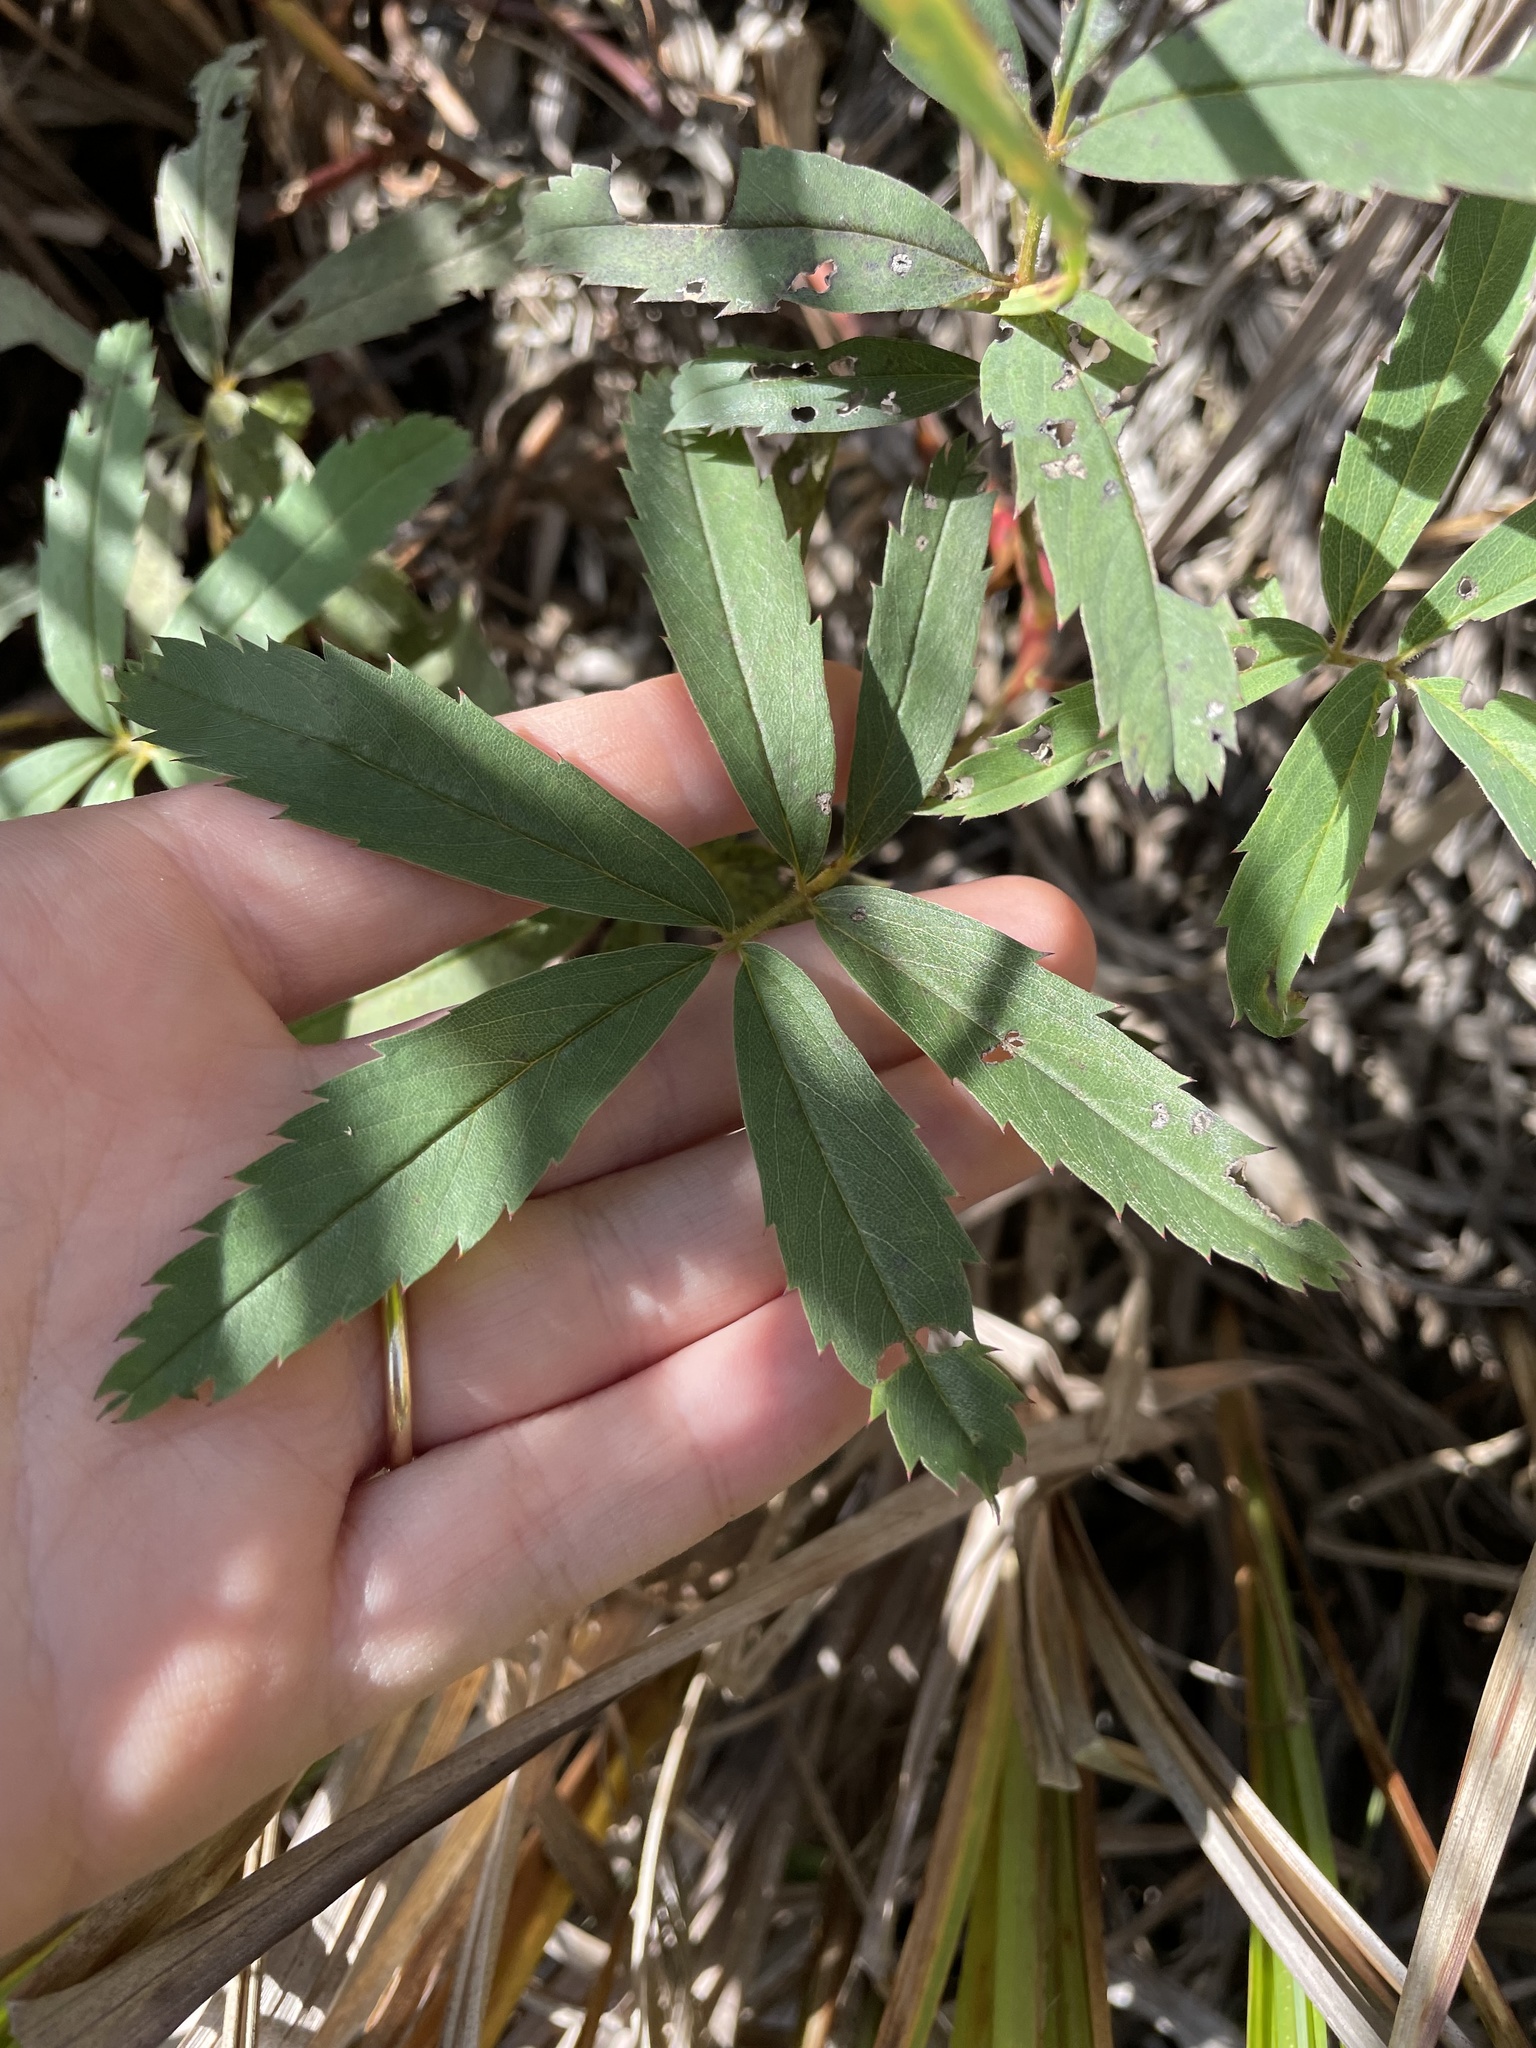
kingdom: Plantae
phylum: Tracheophyta
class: Magnoliopsida
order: Rosales
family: Rosaceae
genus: Comarum
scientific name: Comarum palustre
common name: Marsh cinquefoil
